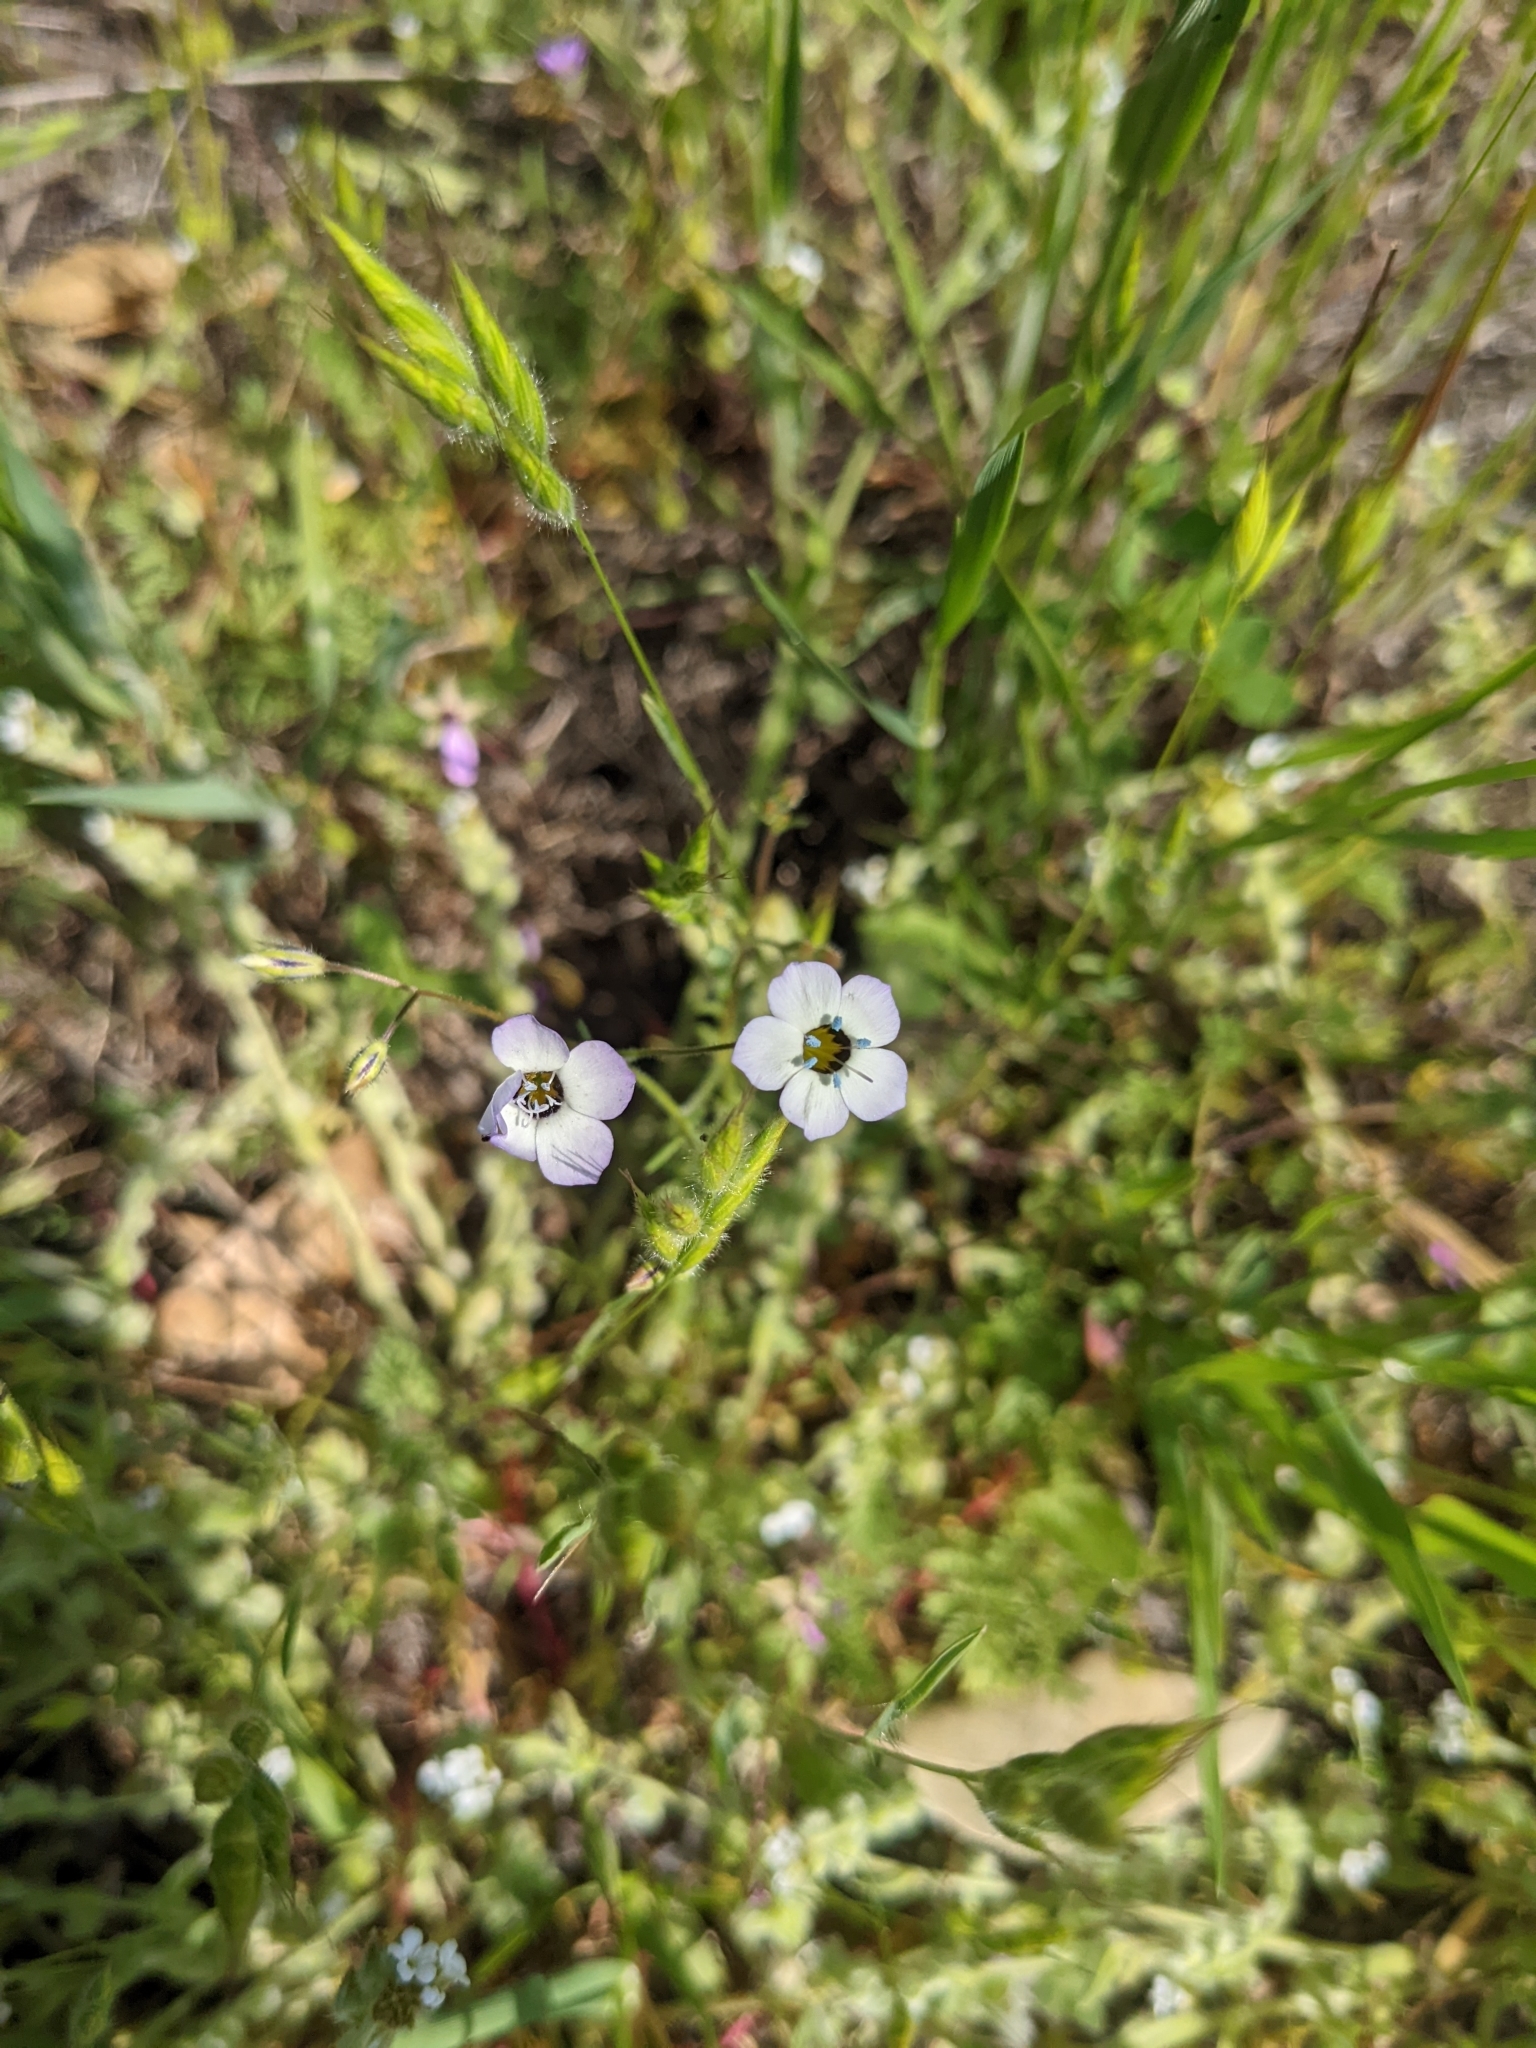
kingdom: Plantae
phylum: Tracheophyta
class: Magnoliopsida
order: Ericales
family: Polemoniaceae
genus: Gilia
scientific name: Gilia tricolor
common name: Bird's-eyes
